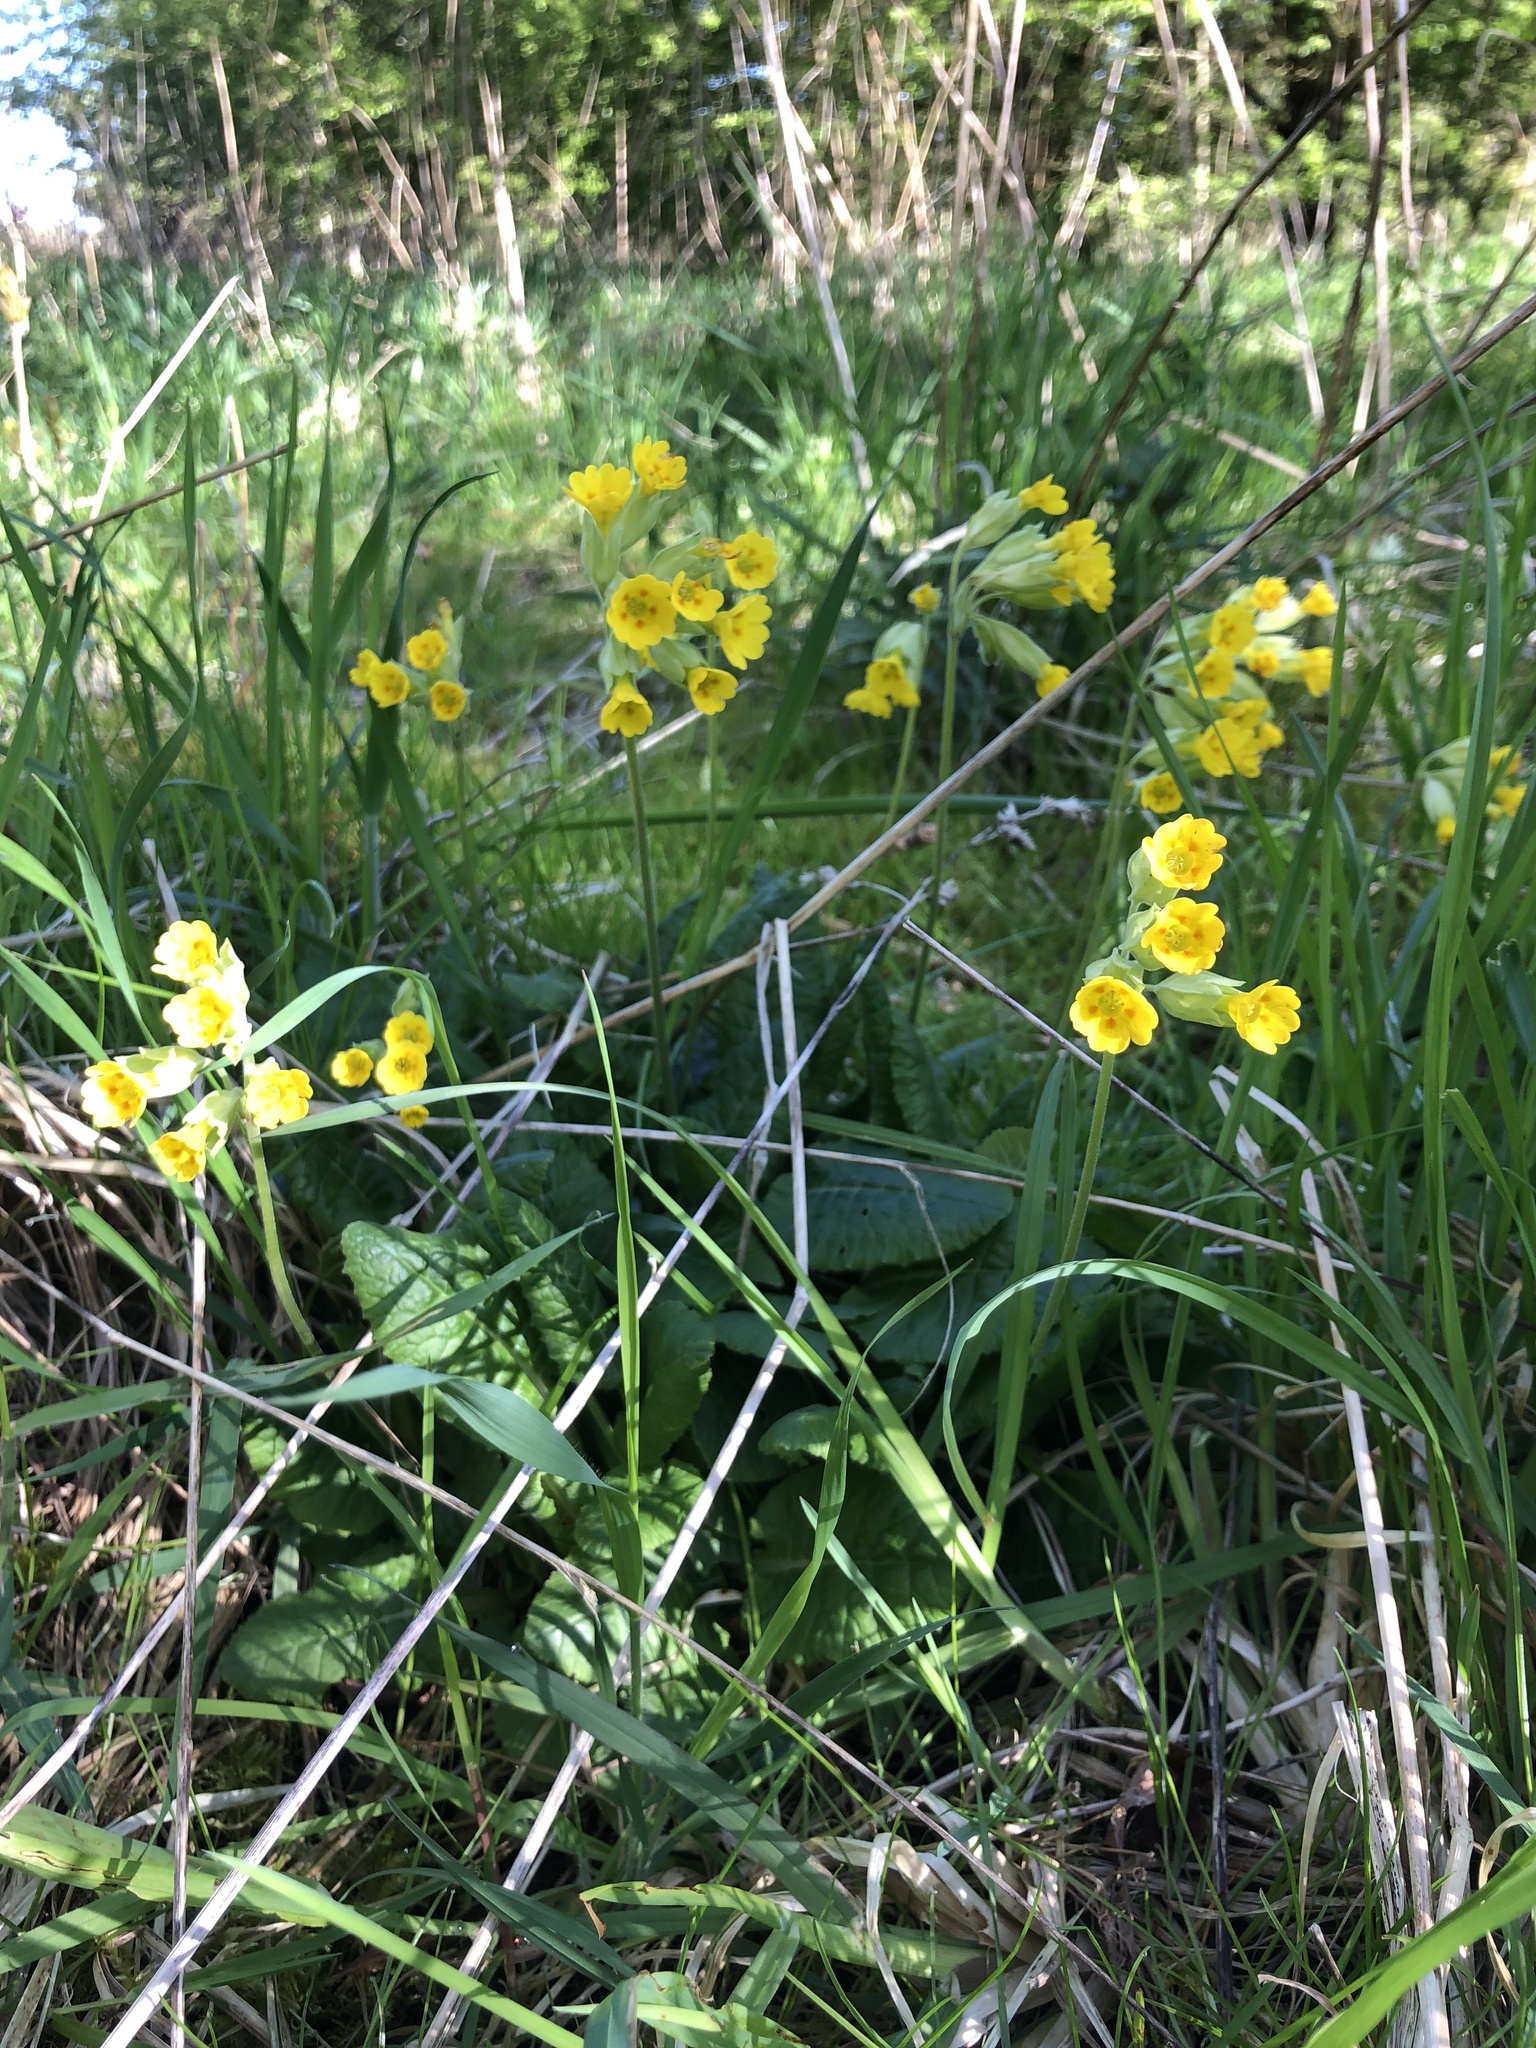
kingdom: Plantae
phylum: Tracheophyta
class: Magnoliopsida
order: Ericales
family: Primulaceae
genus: Primula
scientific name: Primula veris
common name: Cowslip
